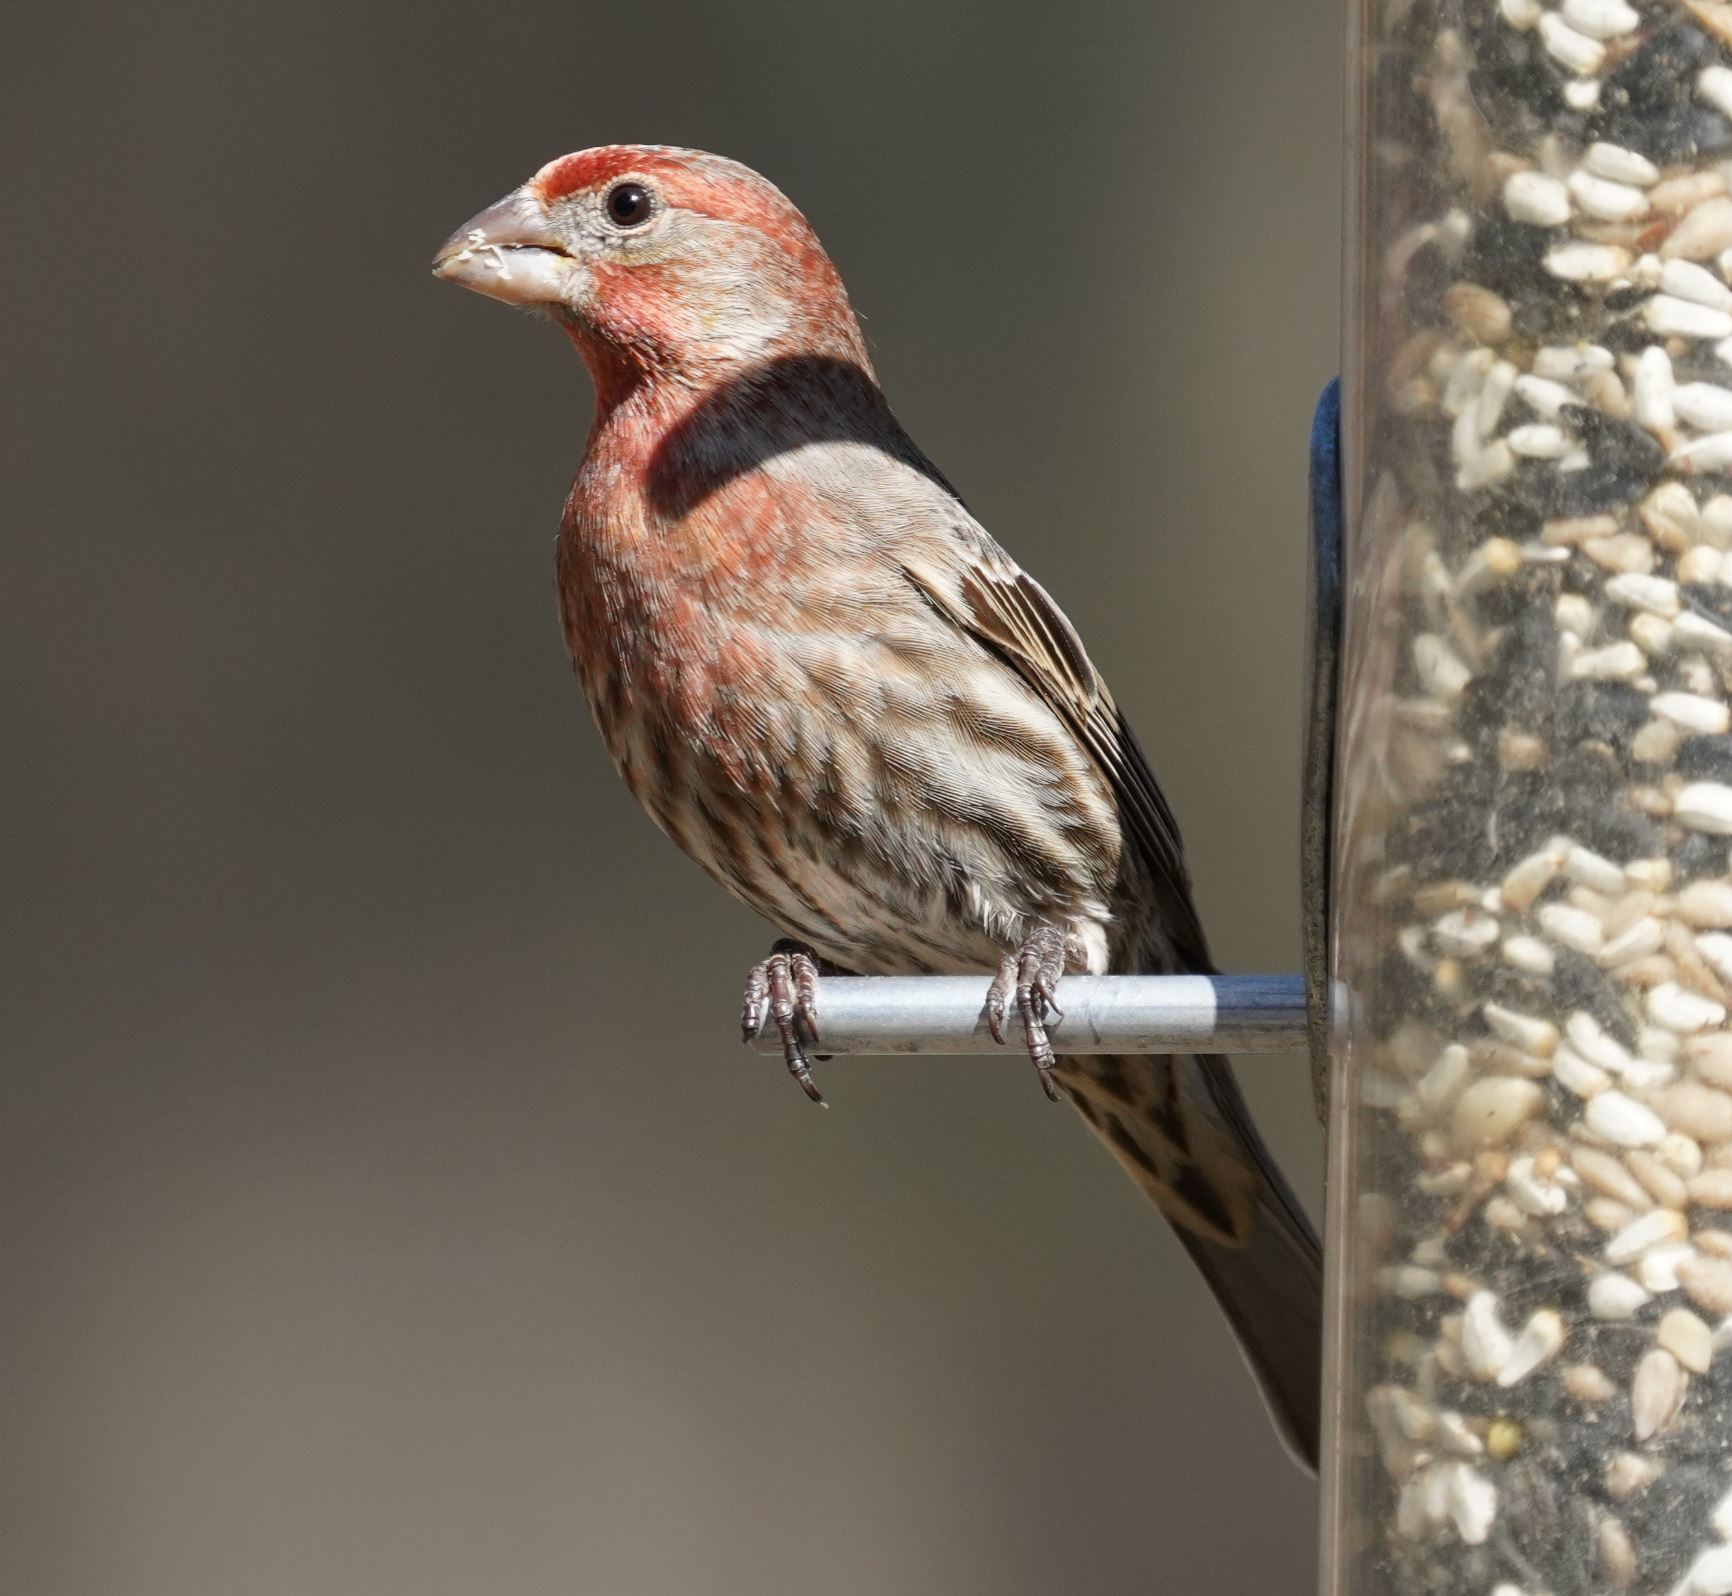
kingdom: Animalia
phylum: Chordata
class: Aves
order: Passeriformes
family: Fringillidae
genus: Haemorhous
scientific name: Haemorhous mexicanus
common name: House finch
